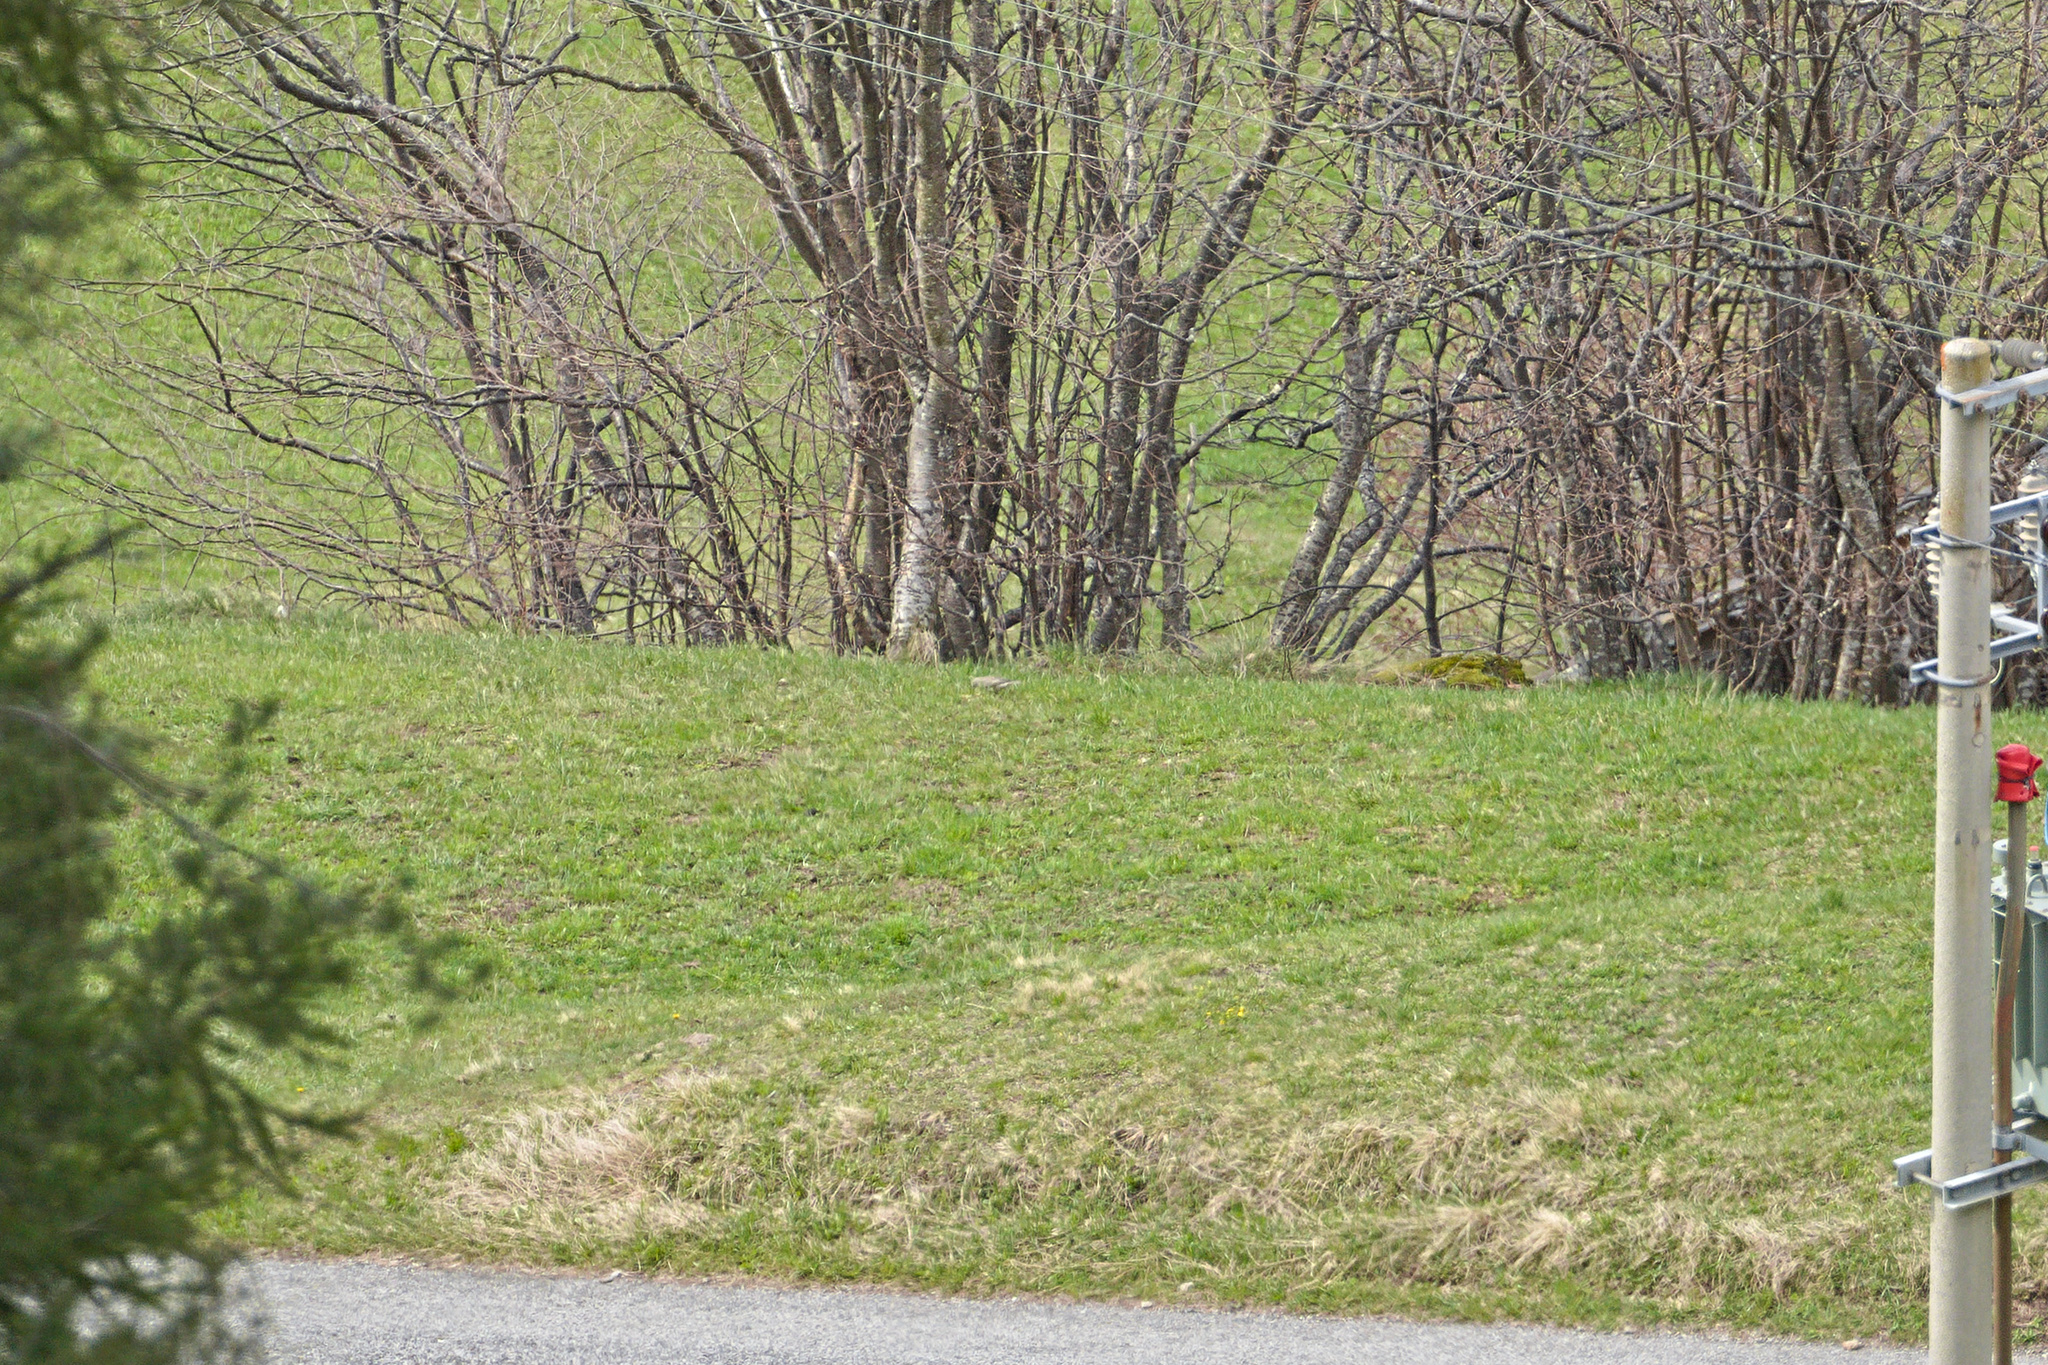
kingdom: Animalia
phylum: Chordata
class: Aves
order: Passeriformes
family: Turdidae
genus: Turdus
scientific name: Turdus viscivorus
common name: Mistle thrush
